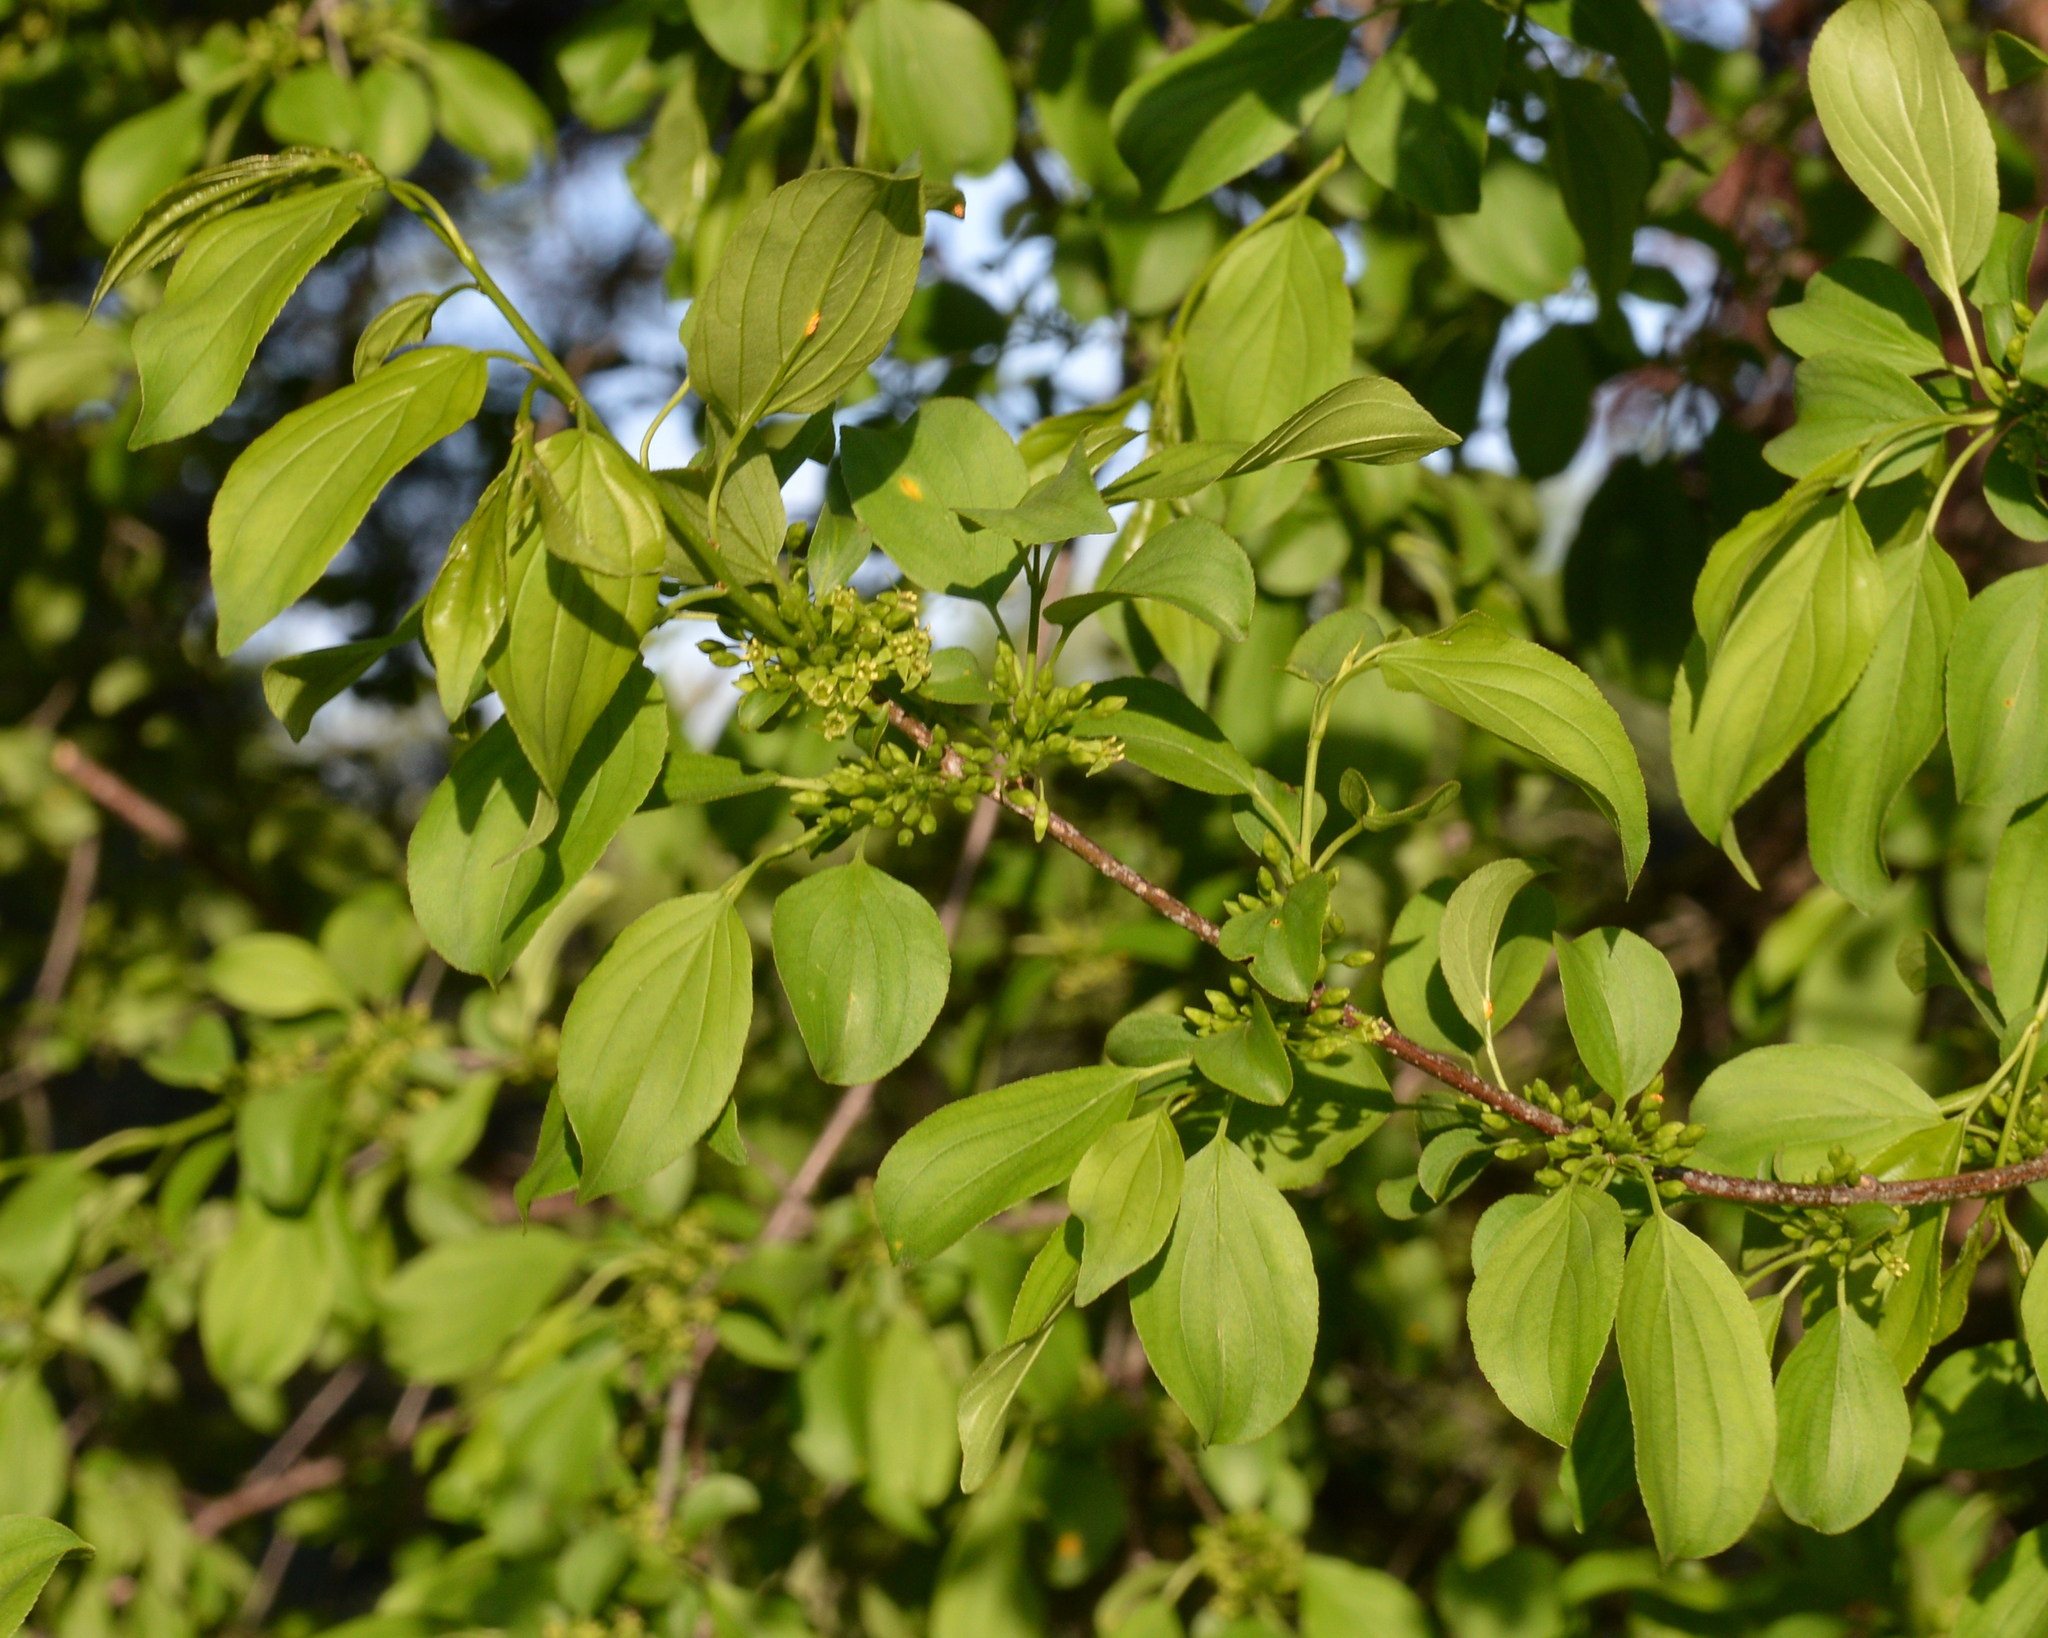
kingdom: Plantae
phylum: Tracheophyta
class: Magnoliopsida
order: Rosales
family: Rhamnaceae
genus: Rhamnus
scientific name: Rhamnus cathartica
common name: Common buckthorn
